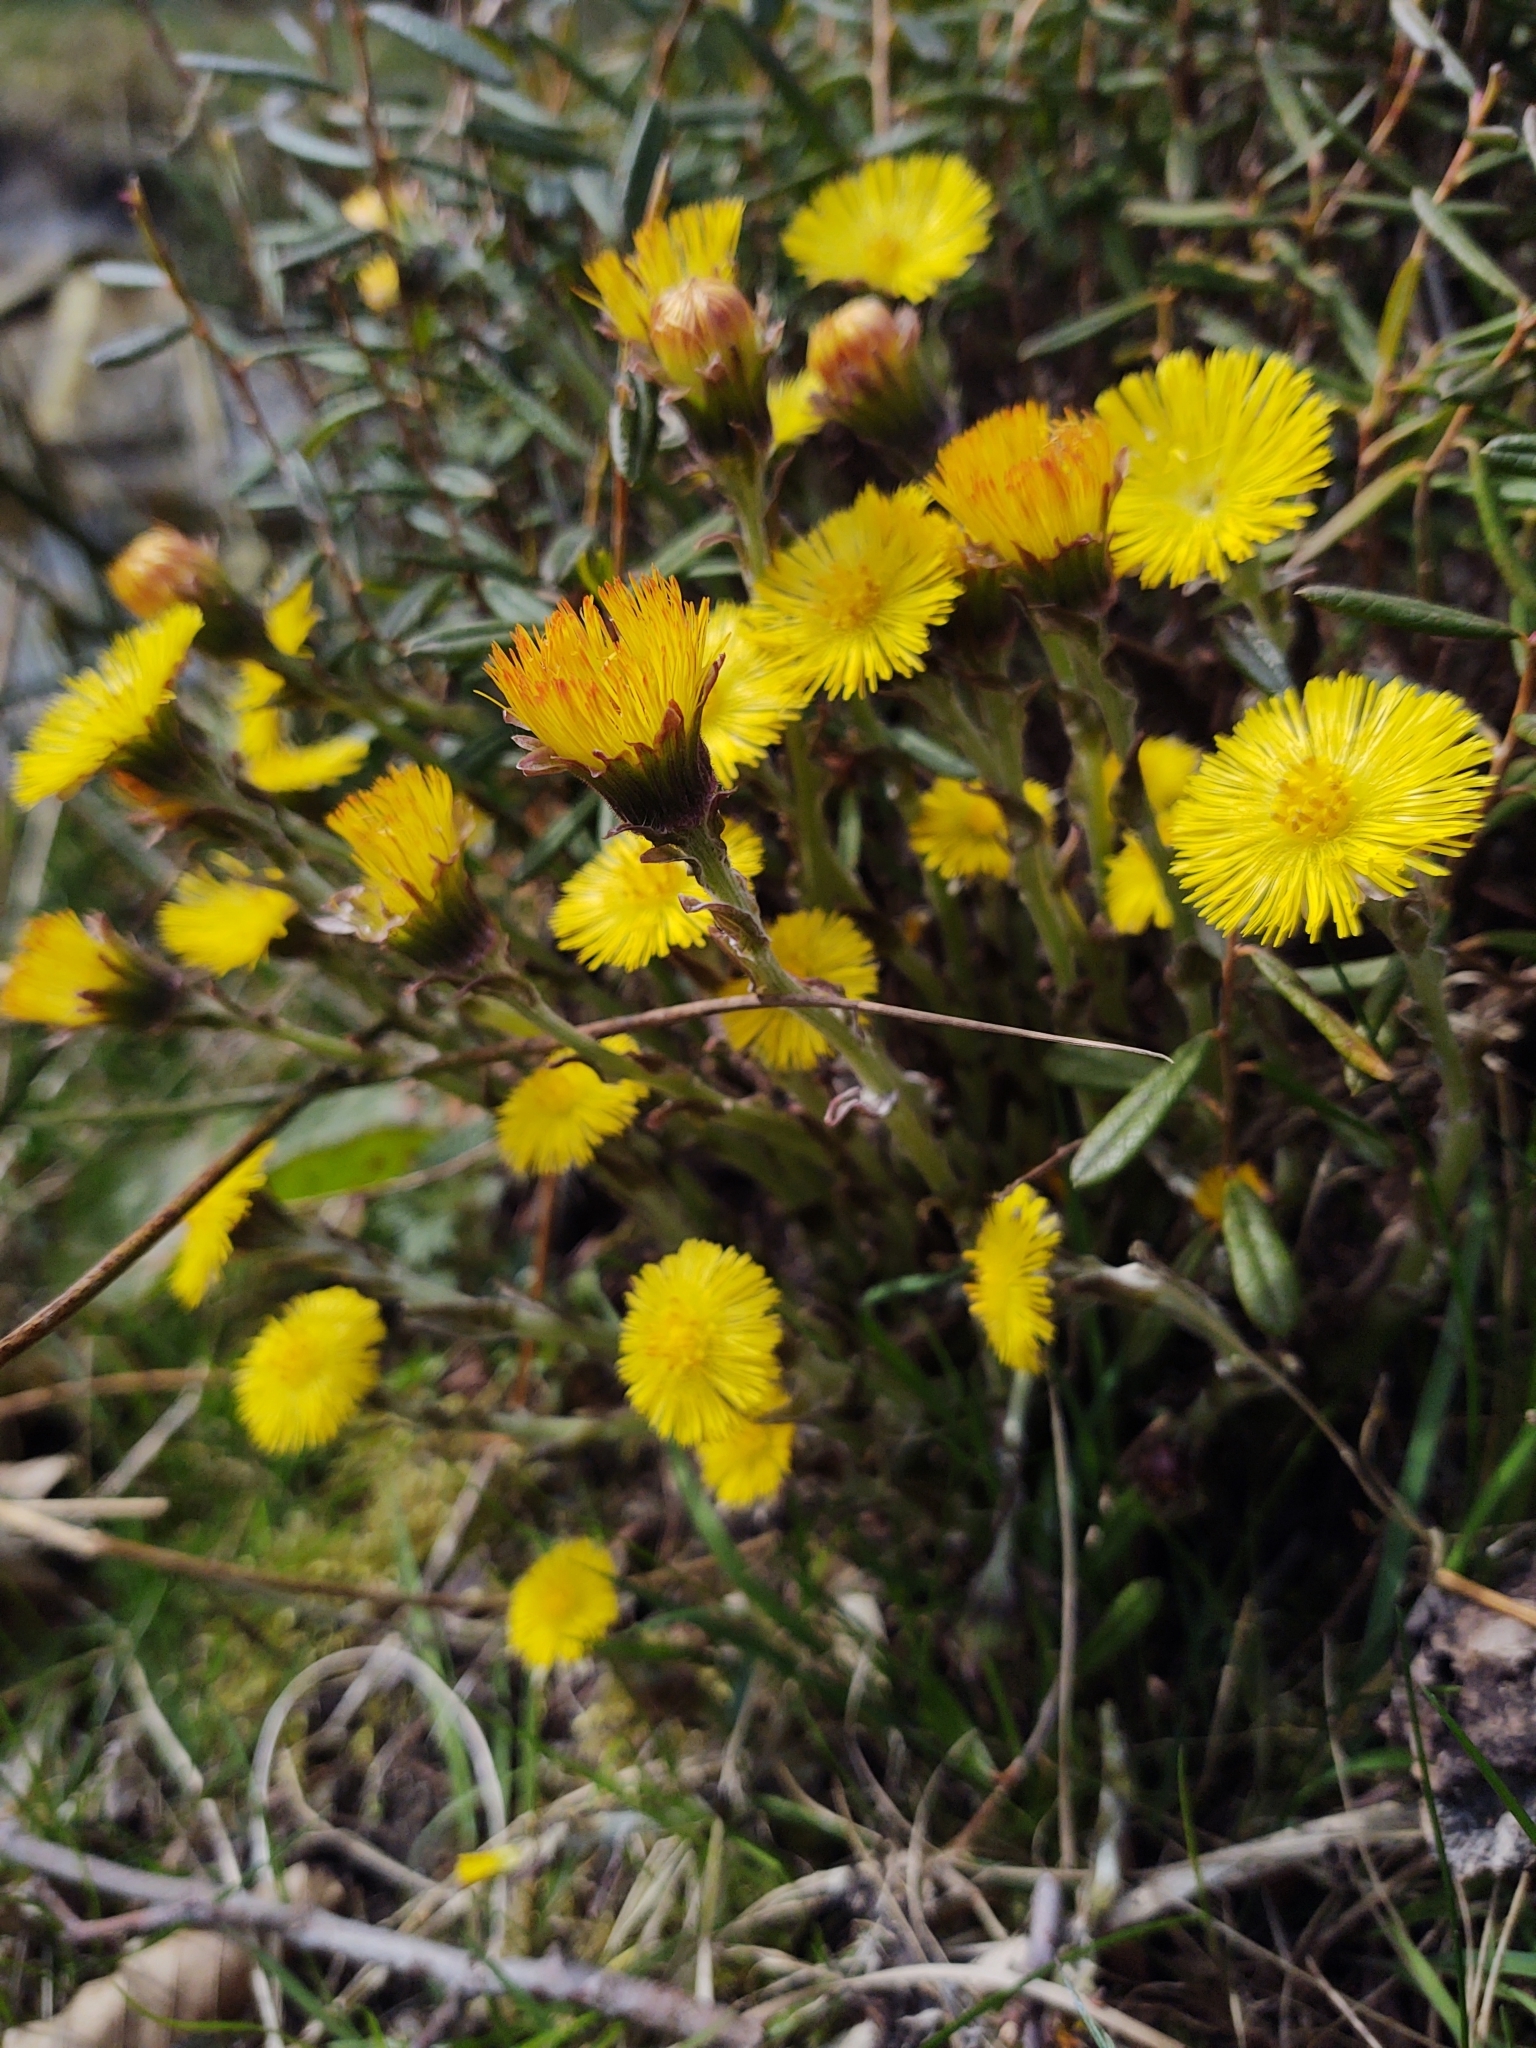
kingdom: Plantae
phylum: Tracheophyta
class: Magnoliopsida
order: Asterales
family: Asteraceae
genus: Tussilago
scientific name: Tussilago farfara
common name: Coltsfoot
